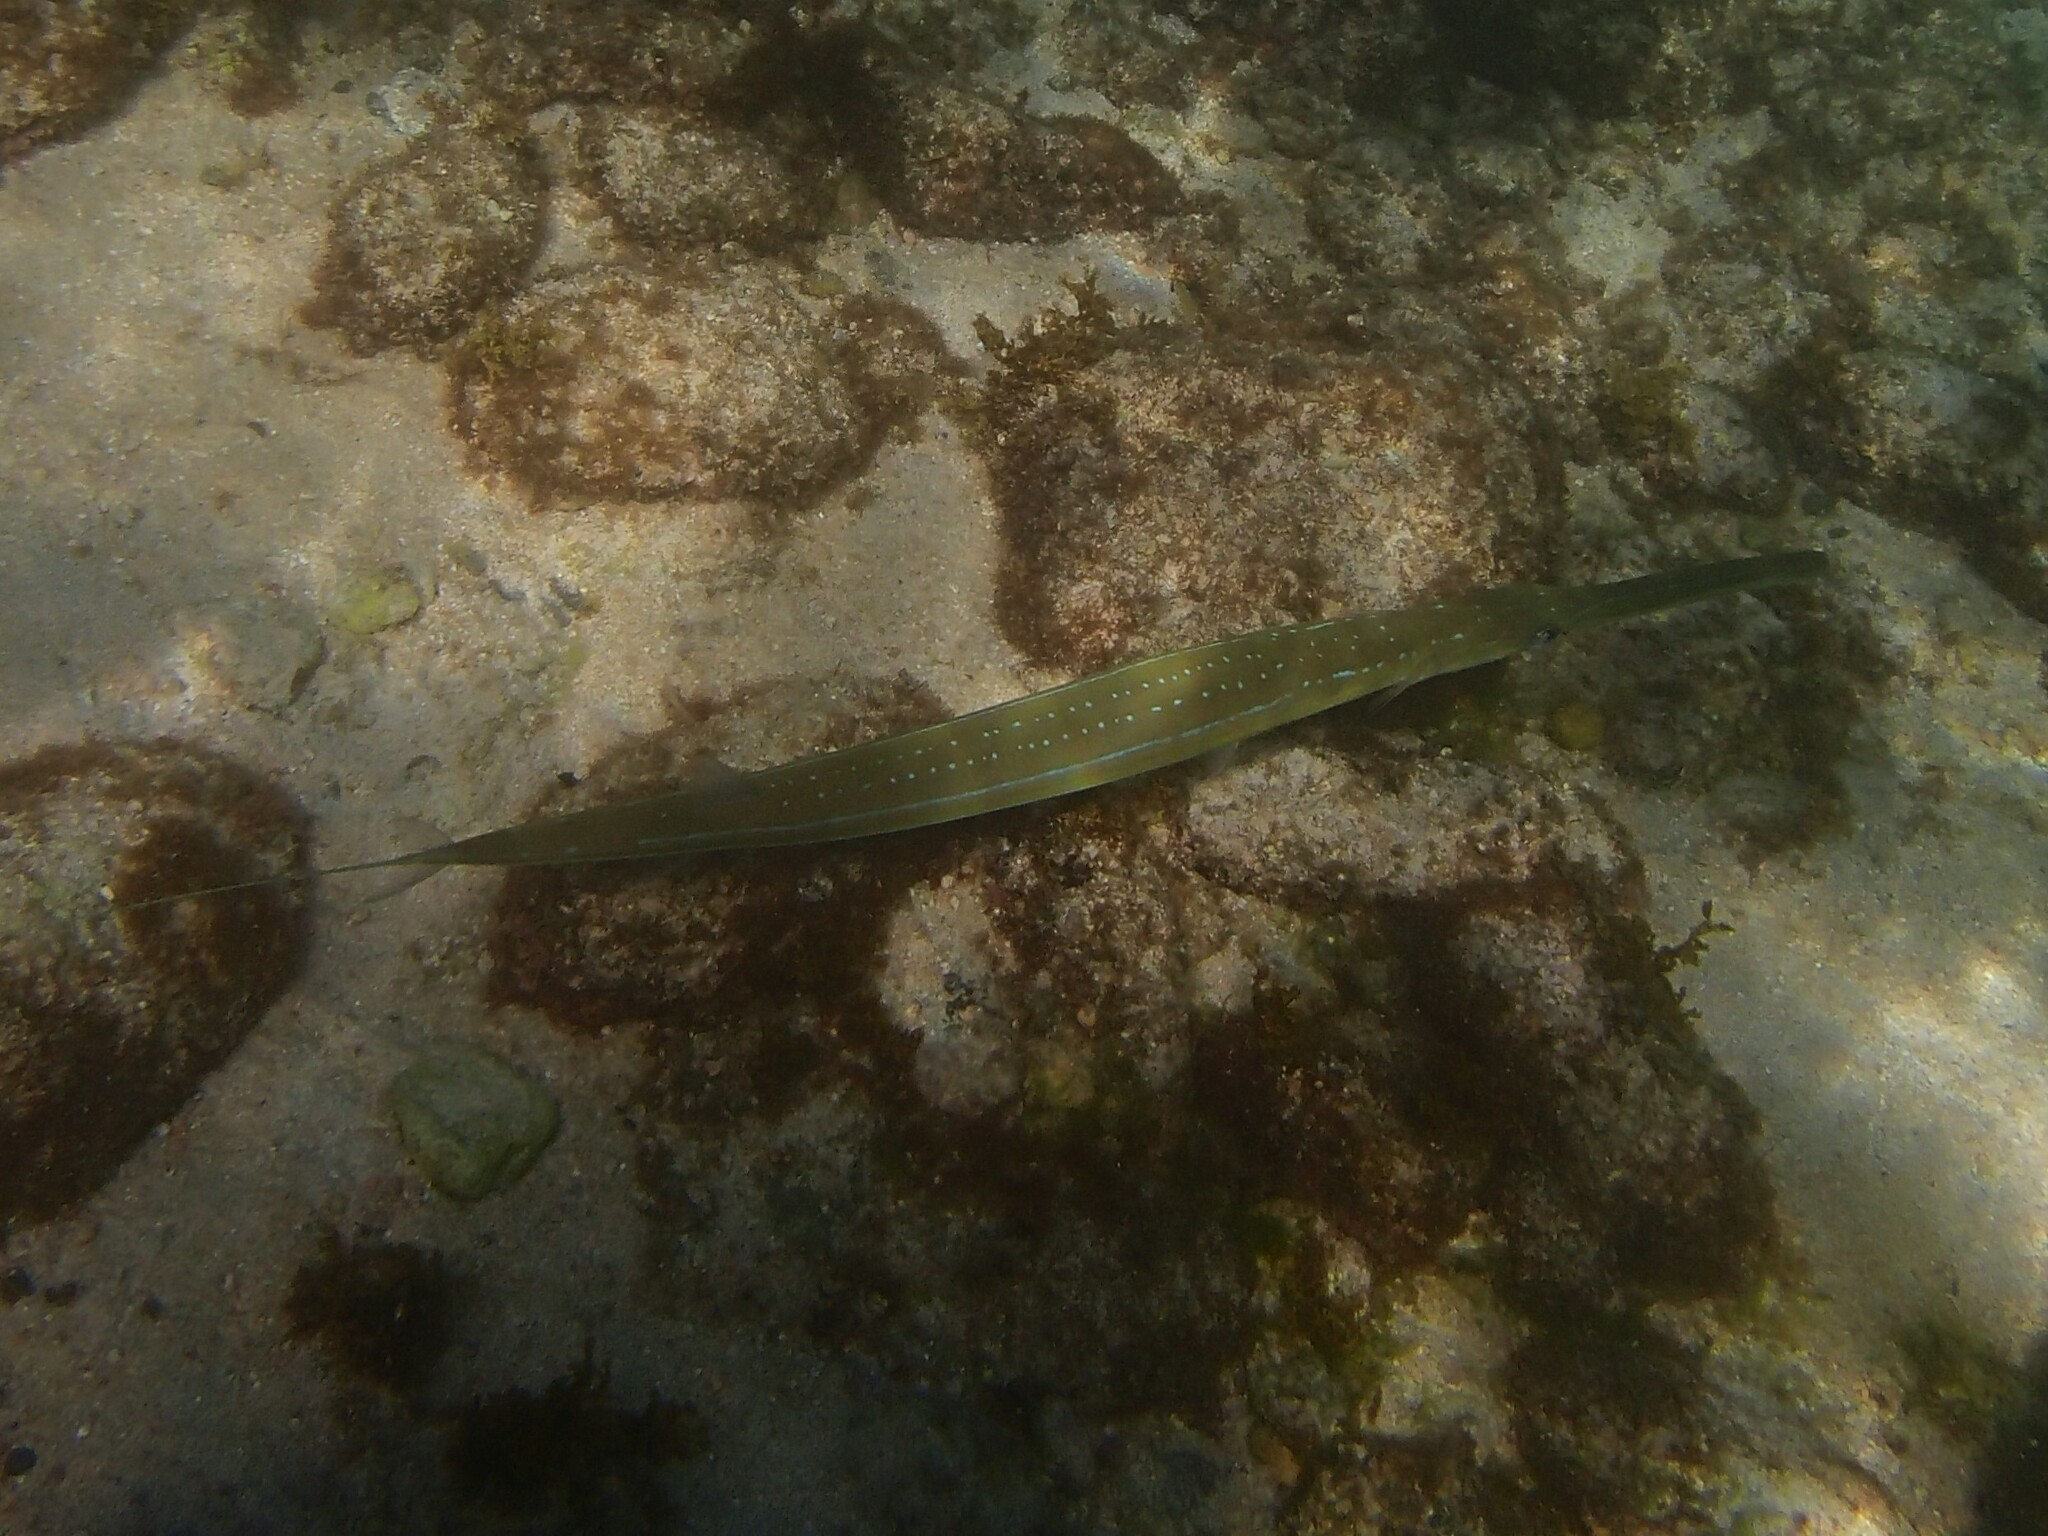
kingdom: Animalia
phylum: Chordata
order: Syngnathiformes
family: Fistulariidae
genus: Fistularia
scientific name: Fistularia commersonii
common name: Bluespotted cornetfish
